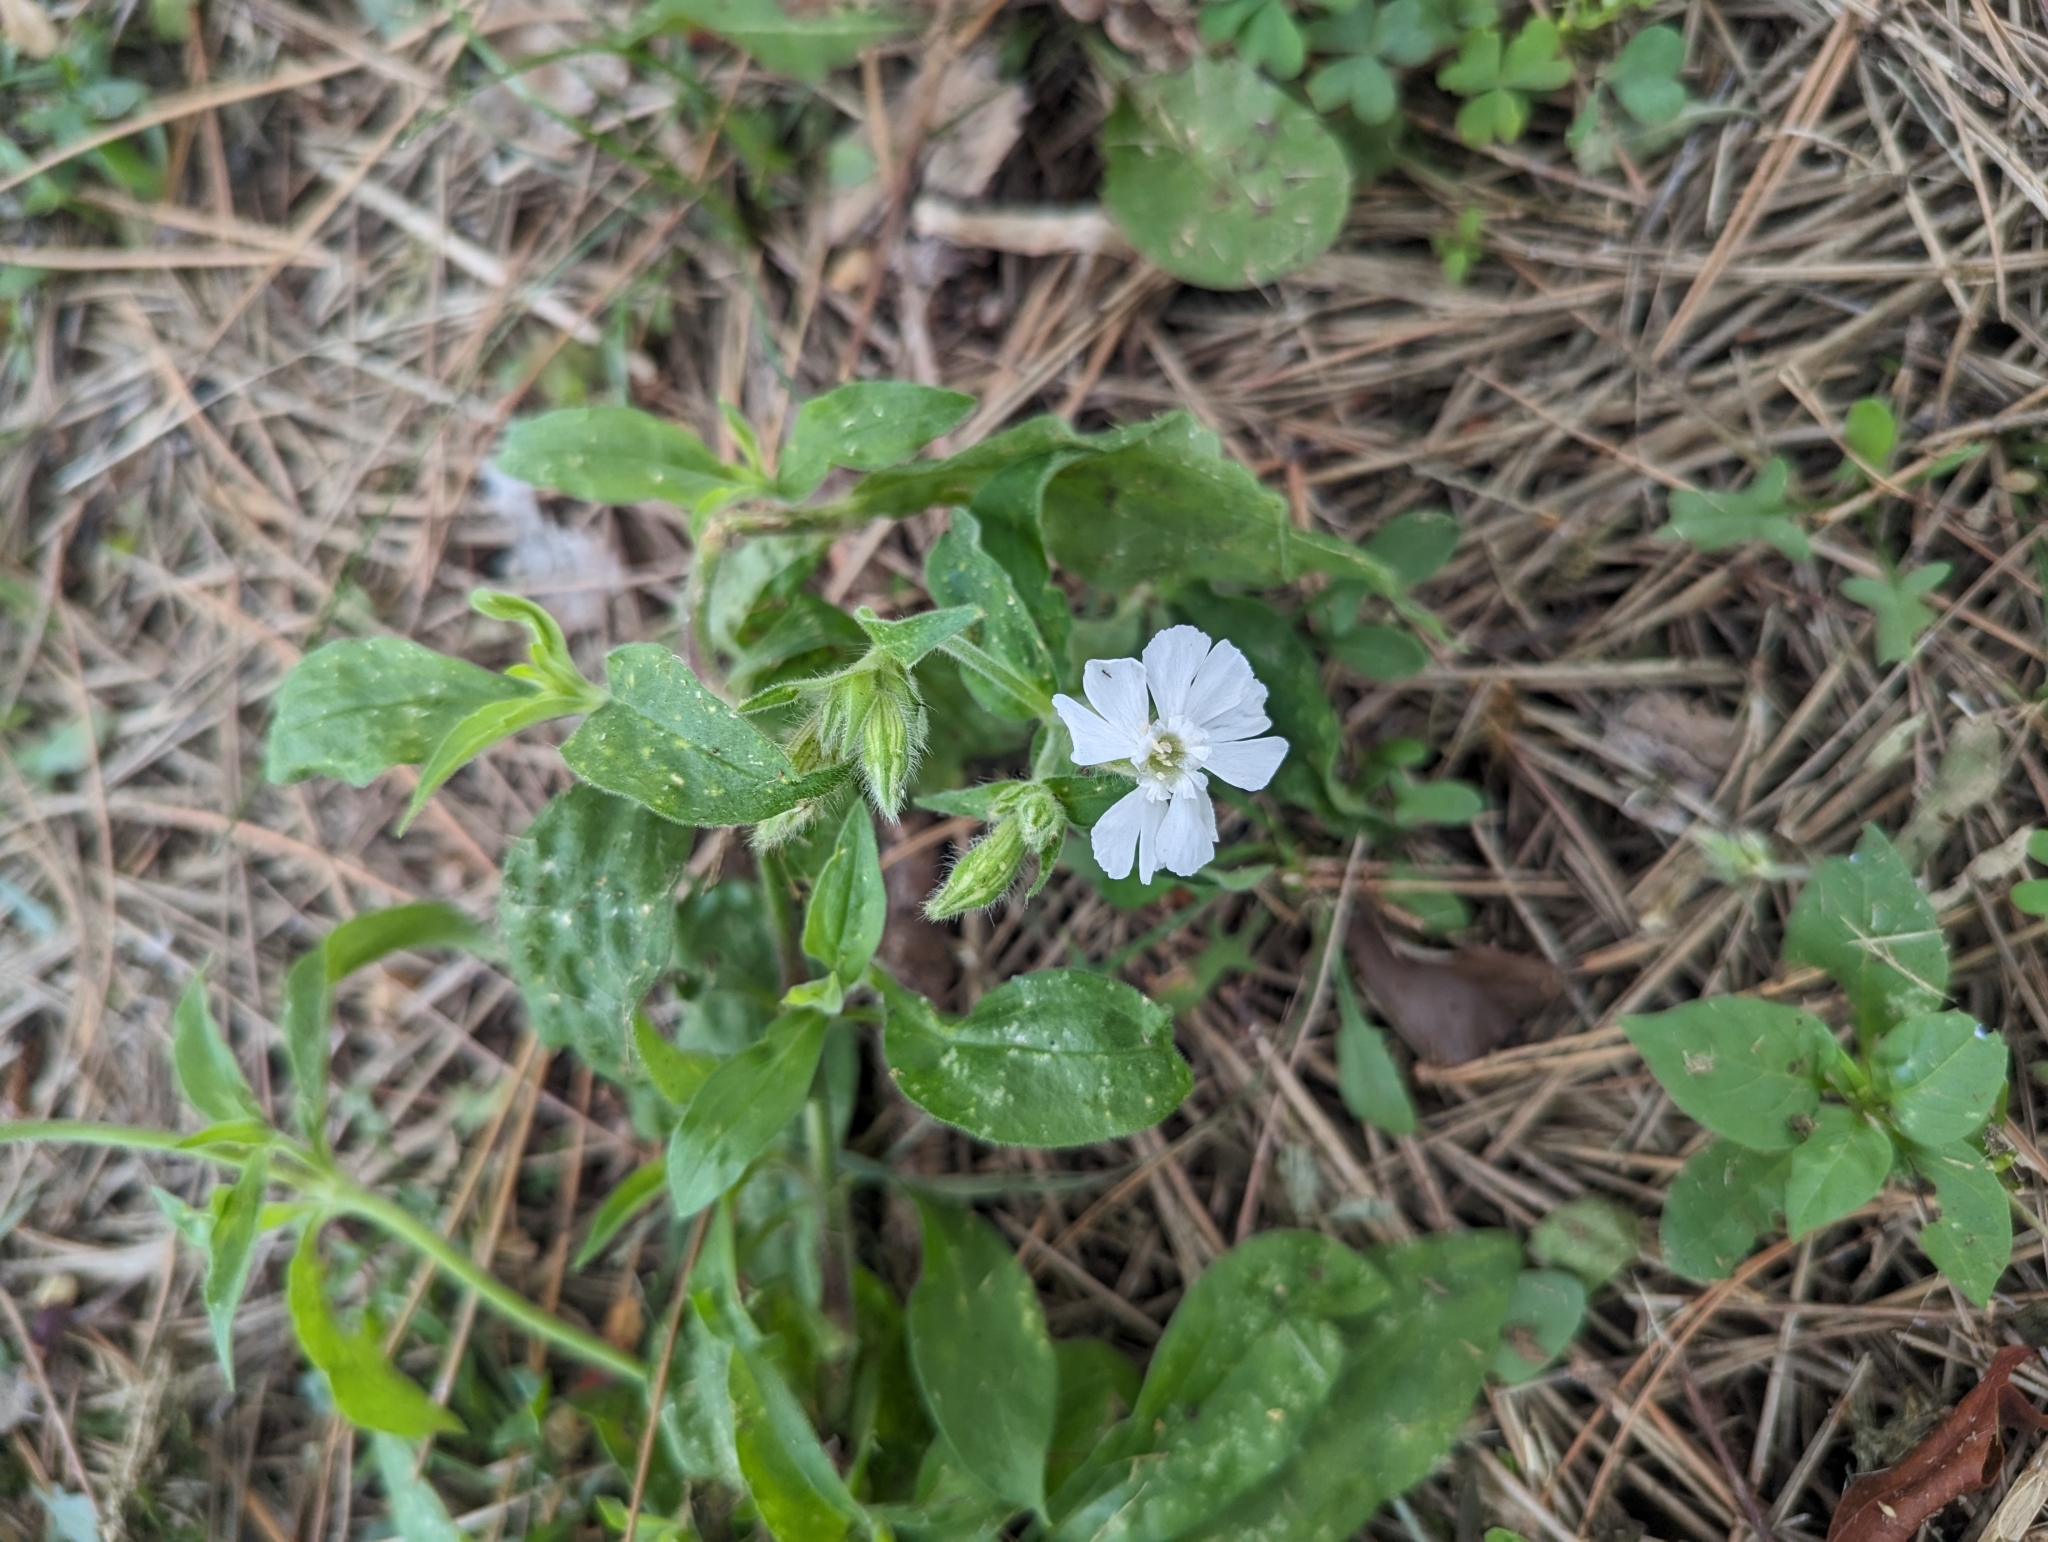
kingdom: Plantae
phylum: Tracheophyta
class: Magnoliopsida
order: Caryophyllales
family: Caryophyllaceae
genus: Silene
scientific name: Silene latifolia
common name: White campion
